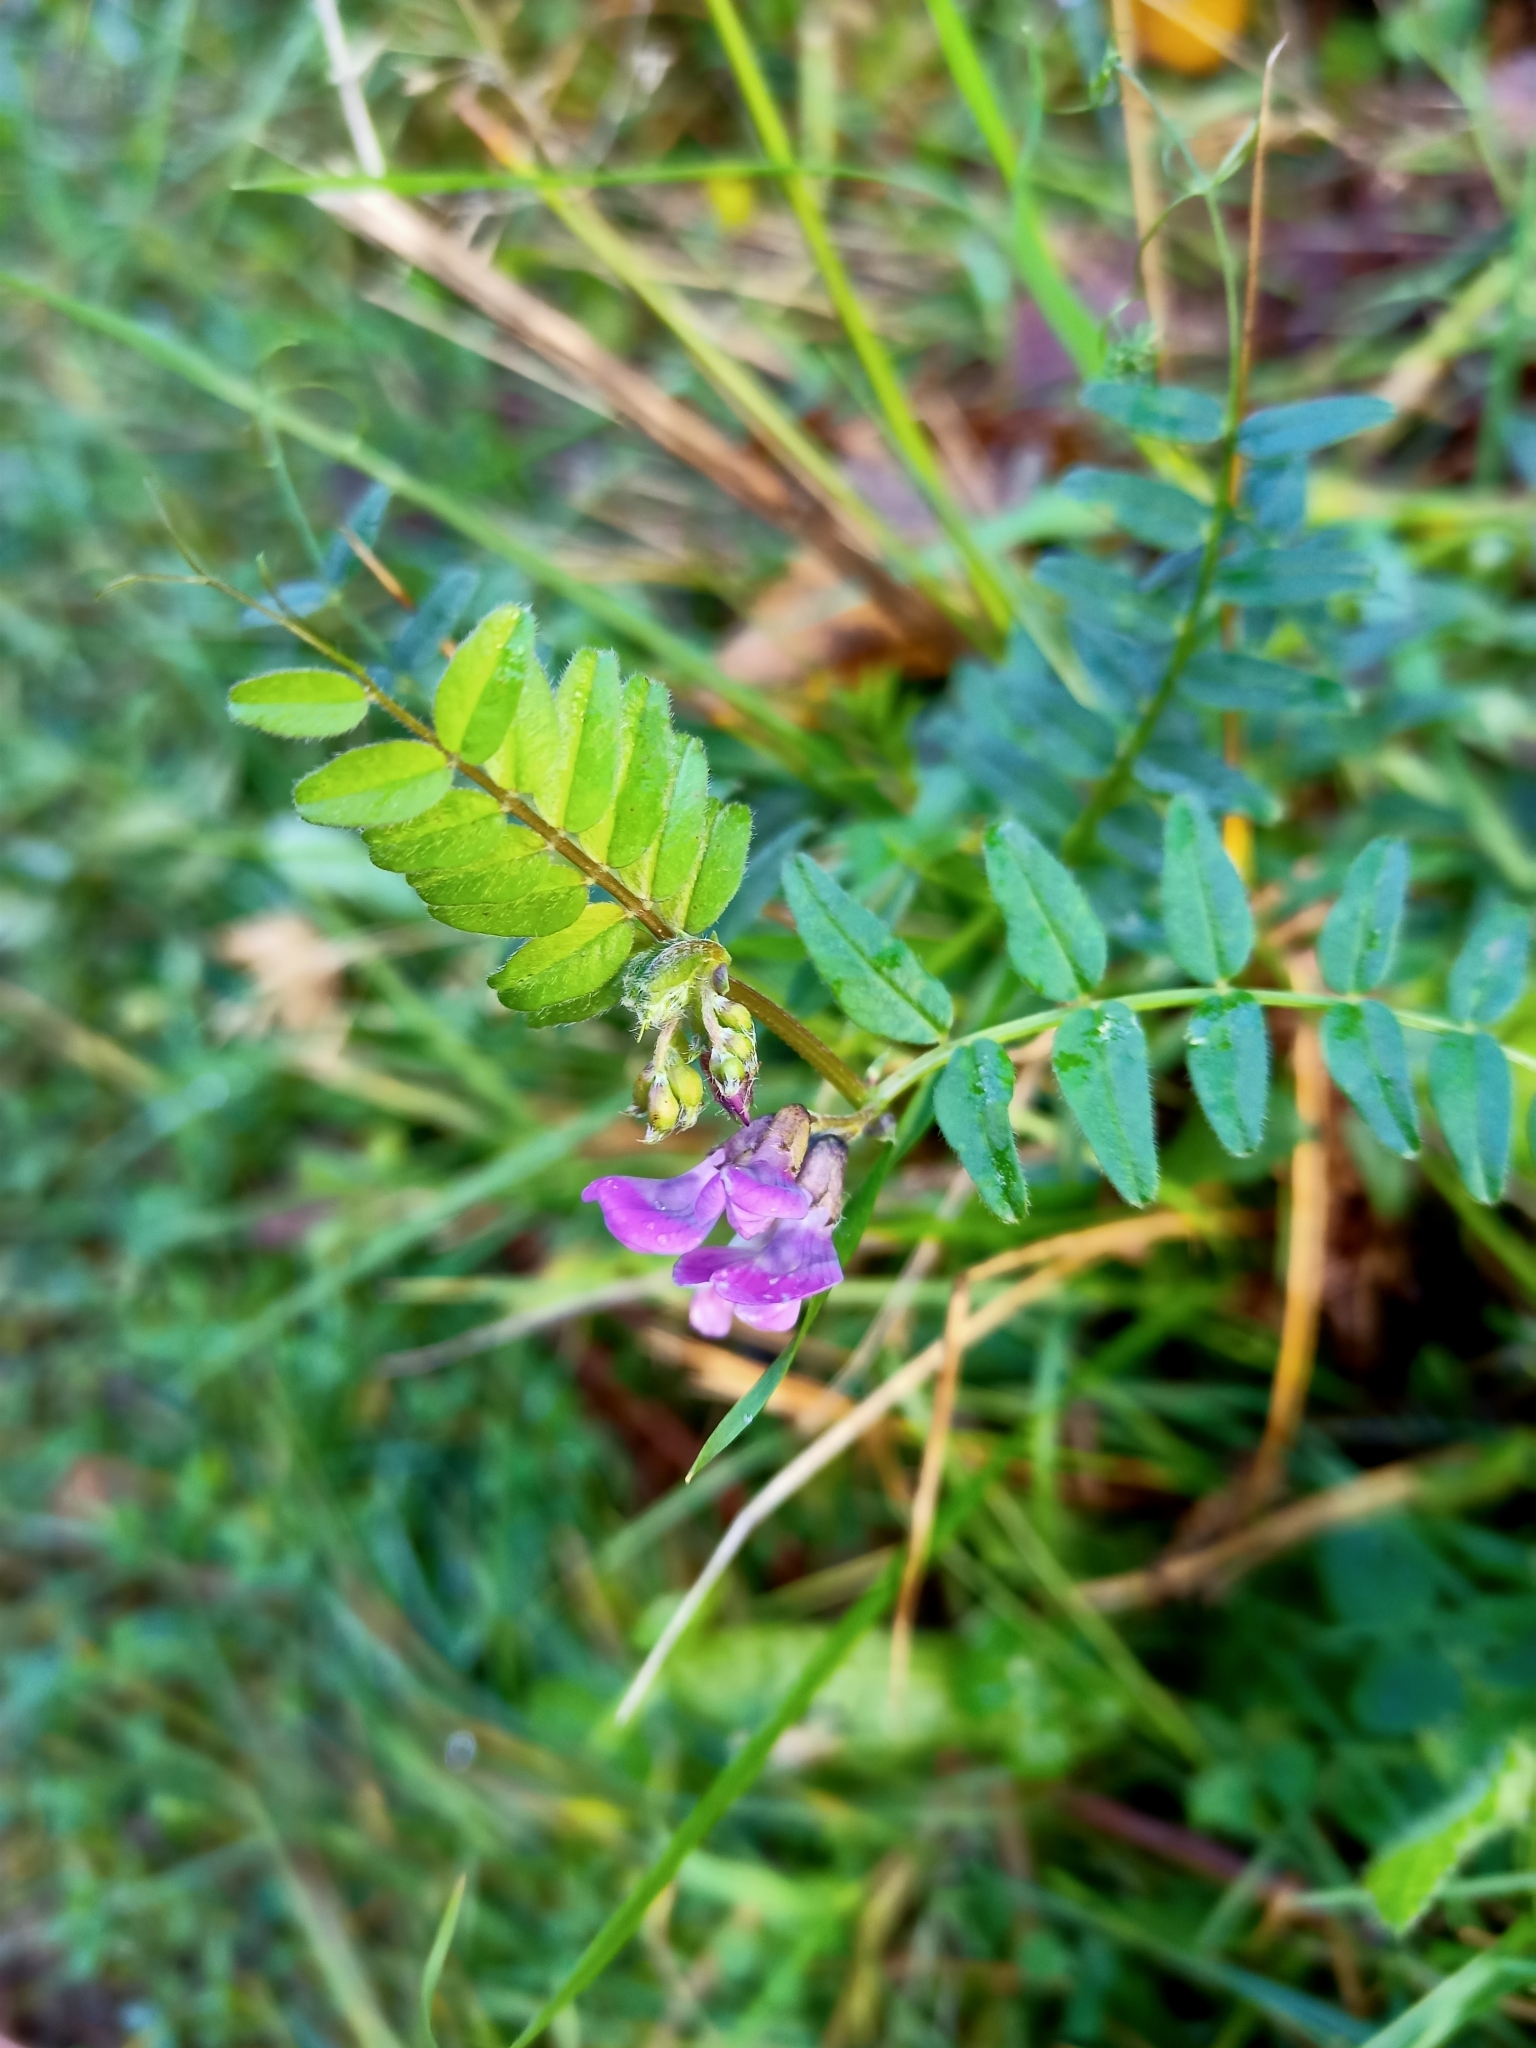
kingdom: Plantae
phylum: Tracheophyta
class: Magnoliopsida
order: Fabales
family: Fabaceae
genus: Vicia
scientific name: Vicia sepium
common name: Bush vetch
